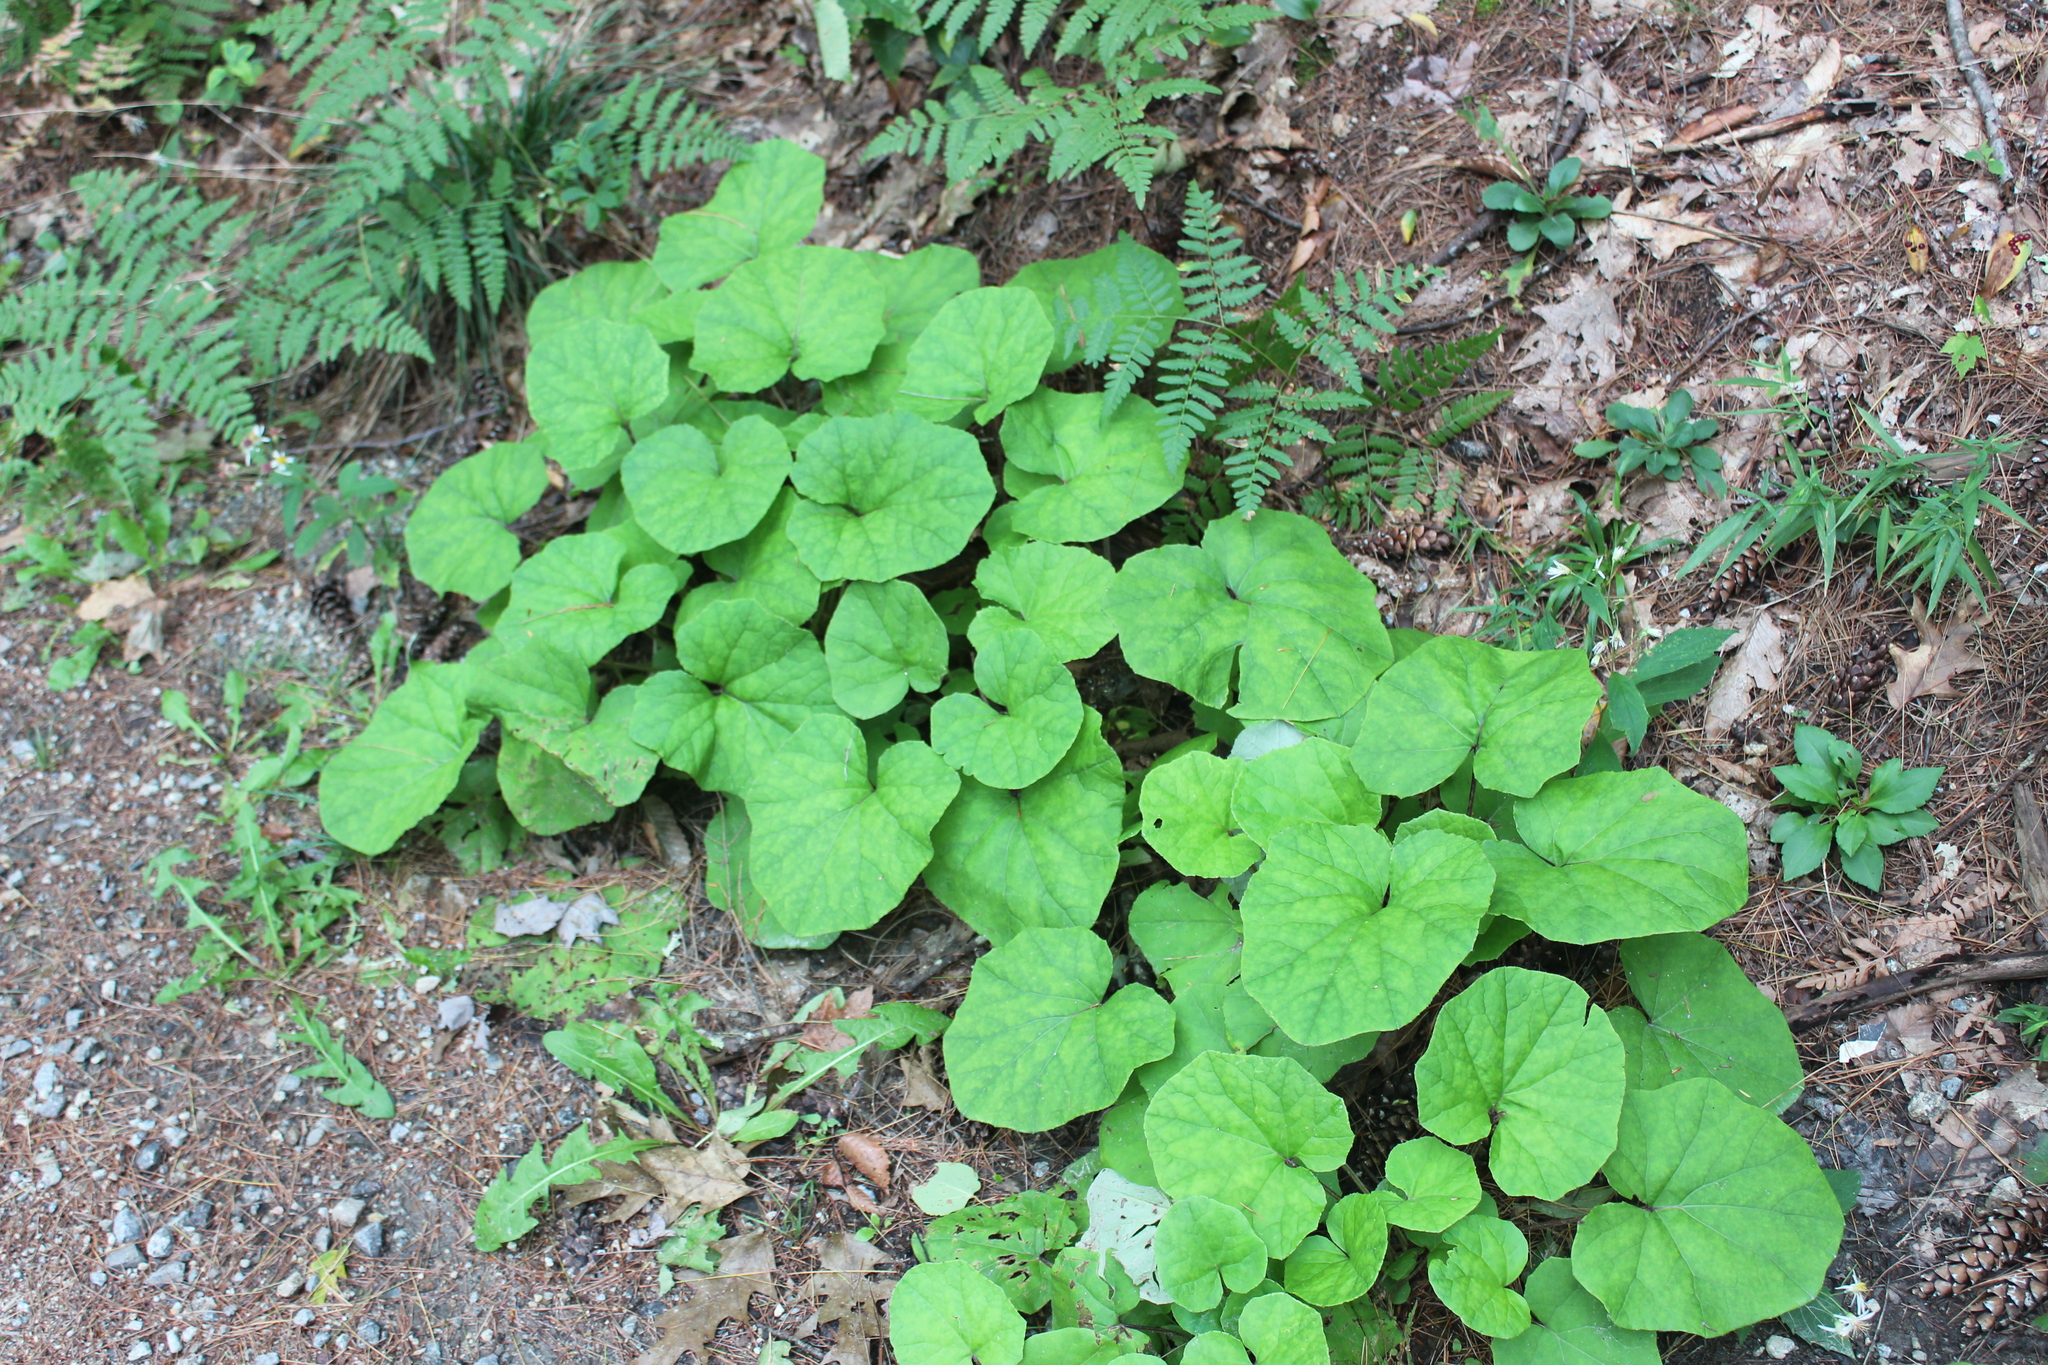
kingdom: Plantae
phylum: Tracheophyta
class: Magnoliopsida
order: Asterales
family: Asteraceae
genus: Tussilago
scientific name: Tussilago farfara
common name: Coltsfoot
